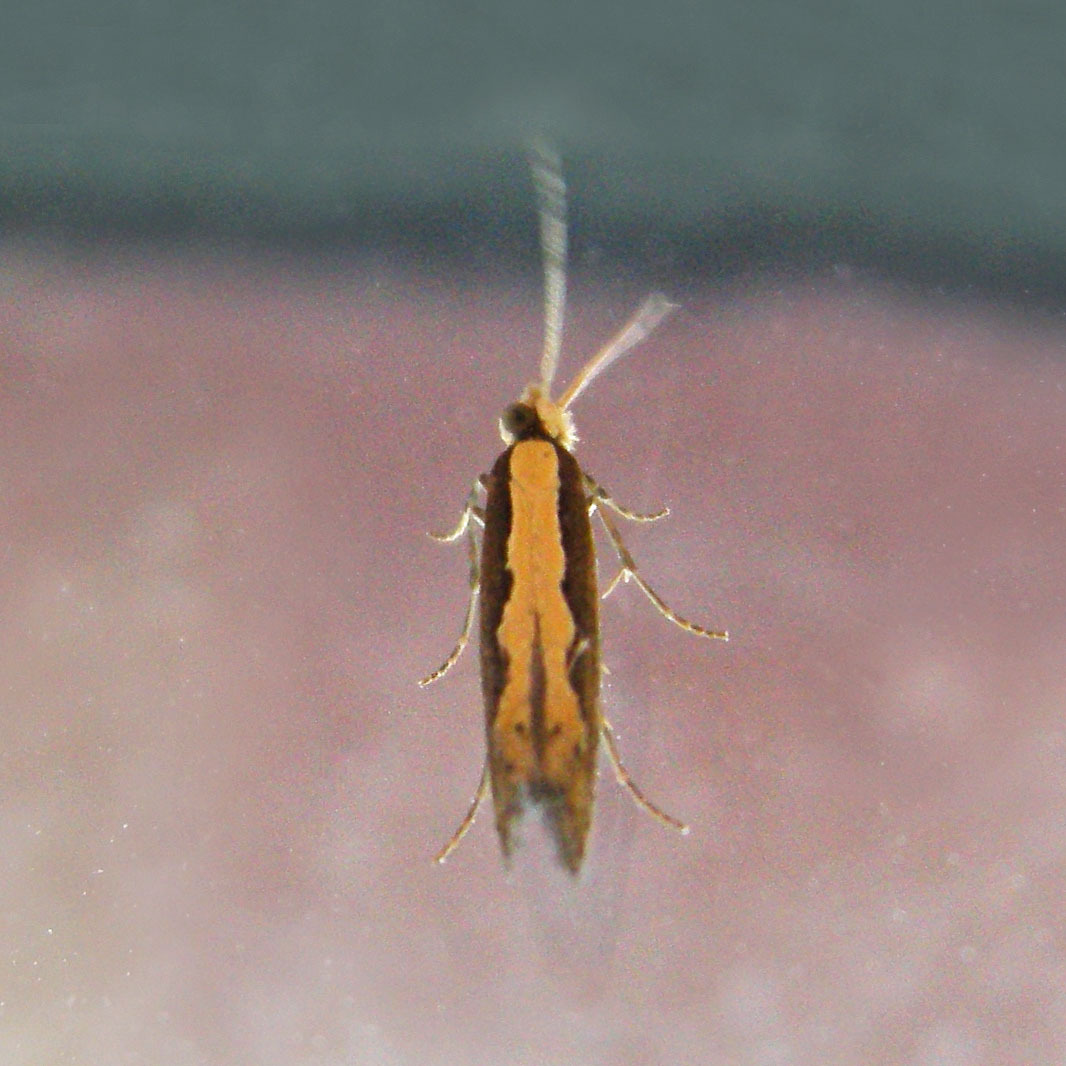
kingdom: Animalia
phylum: Arthropoda
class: Insecta
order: Lepidoptera
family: Plutellidae
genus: Plutella
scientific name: Plutella xylostella
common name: Diamond-back moth
